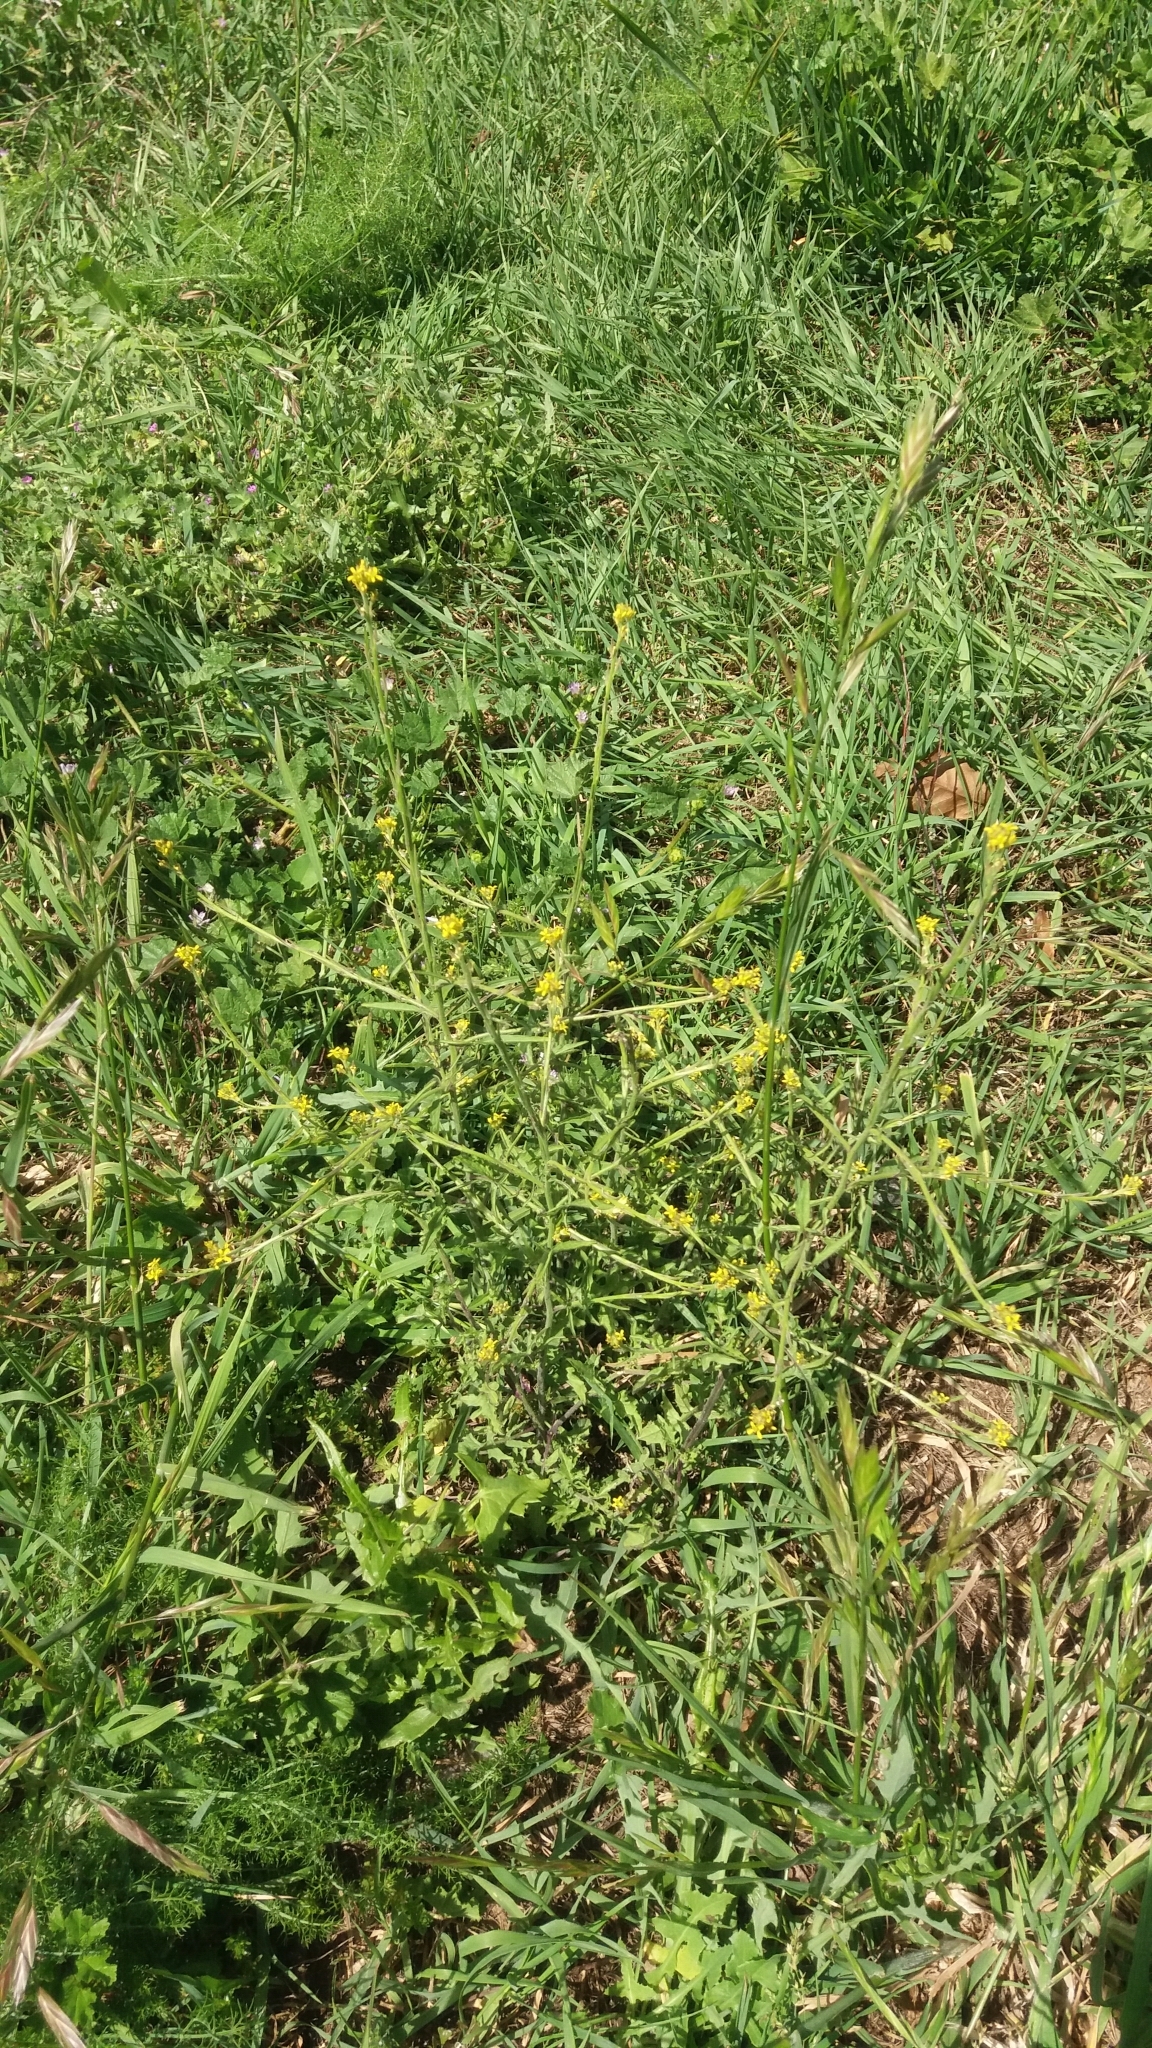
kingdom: Plantae
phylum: Tracheophyta
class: Magnoliopsida
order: Brassicales
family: Brassicaceae
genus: Sisymbrium
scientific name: Sisymbrium officinale
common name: Hedge mustard
